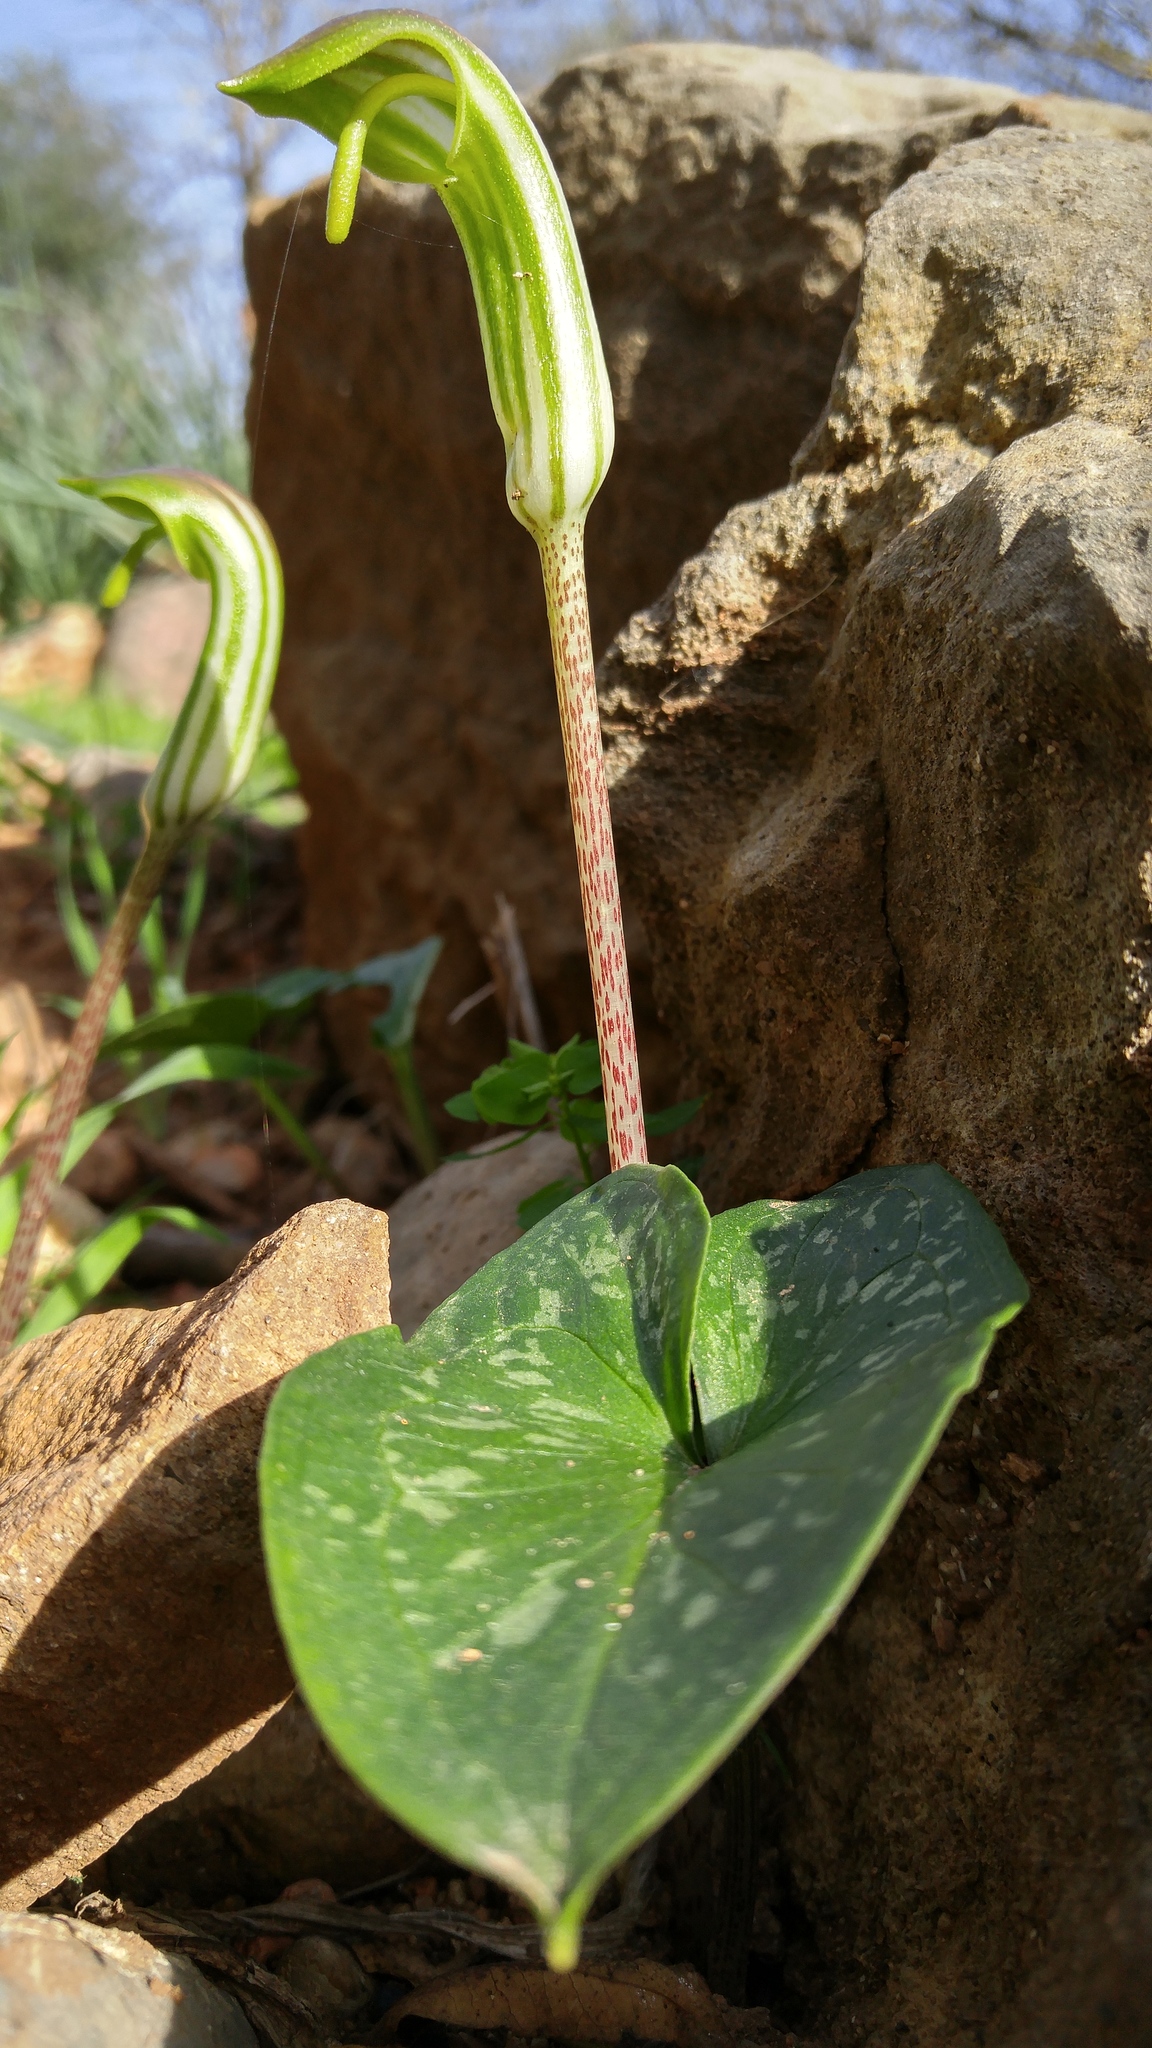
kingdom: Plantae
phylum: Tracheophyta
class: Liliopsida
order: Alismatales
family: Araceae
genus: Arisarum
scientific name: Arisarum vulgare
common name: Common arisarum
